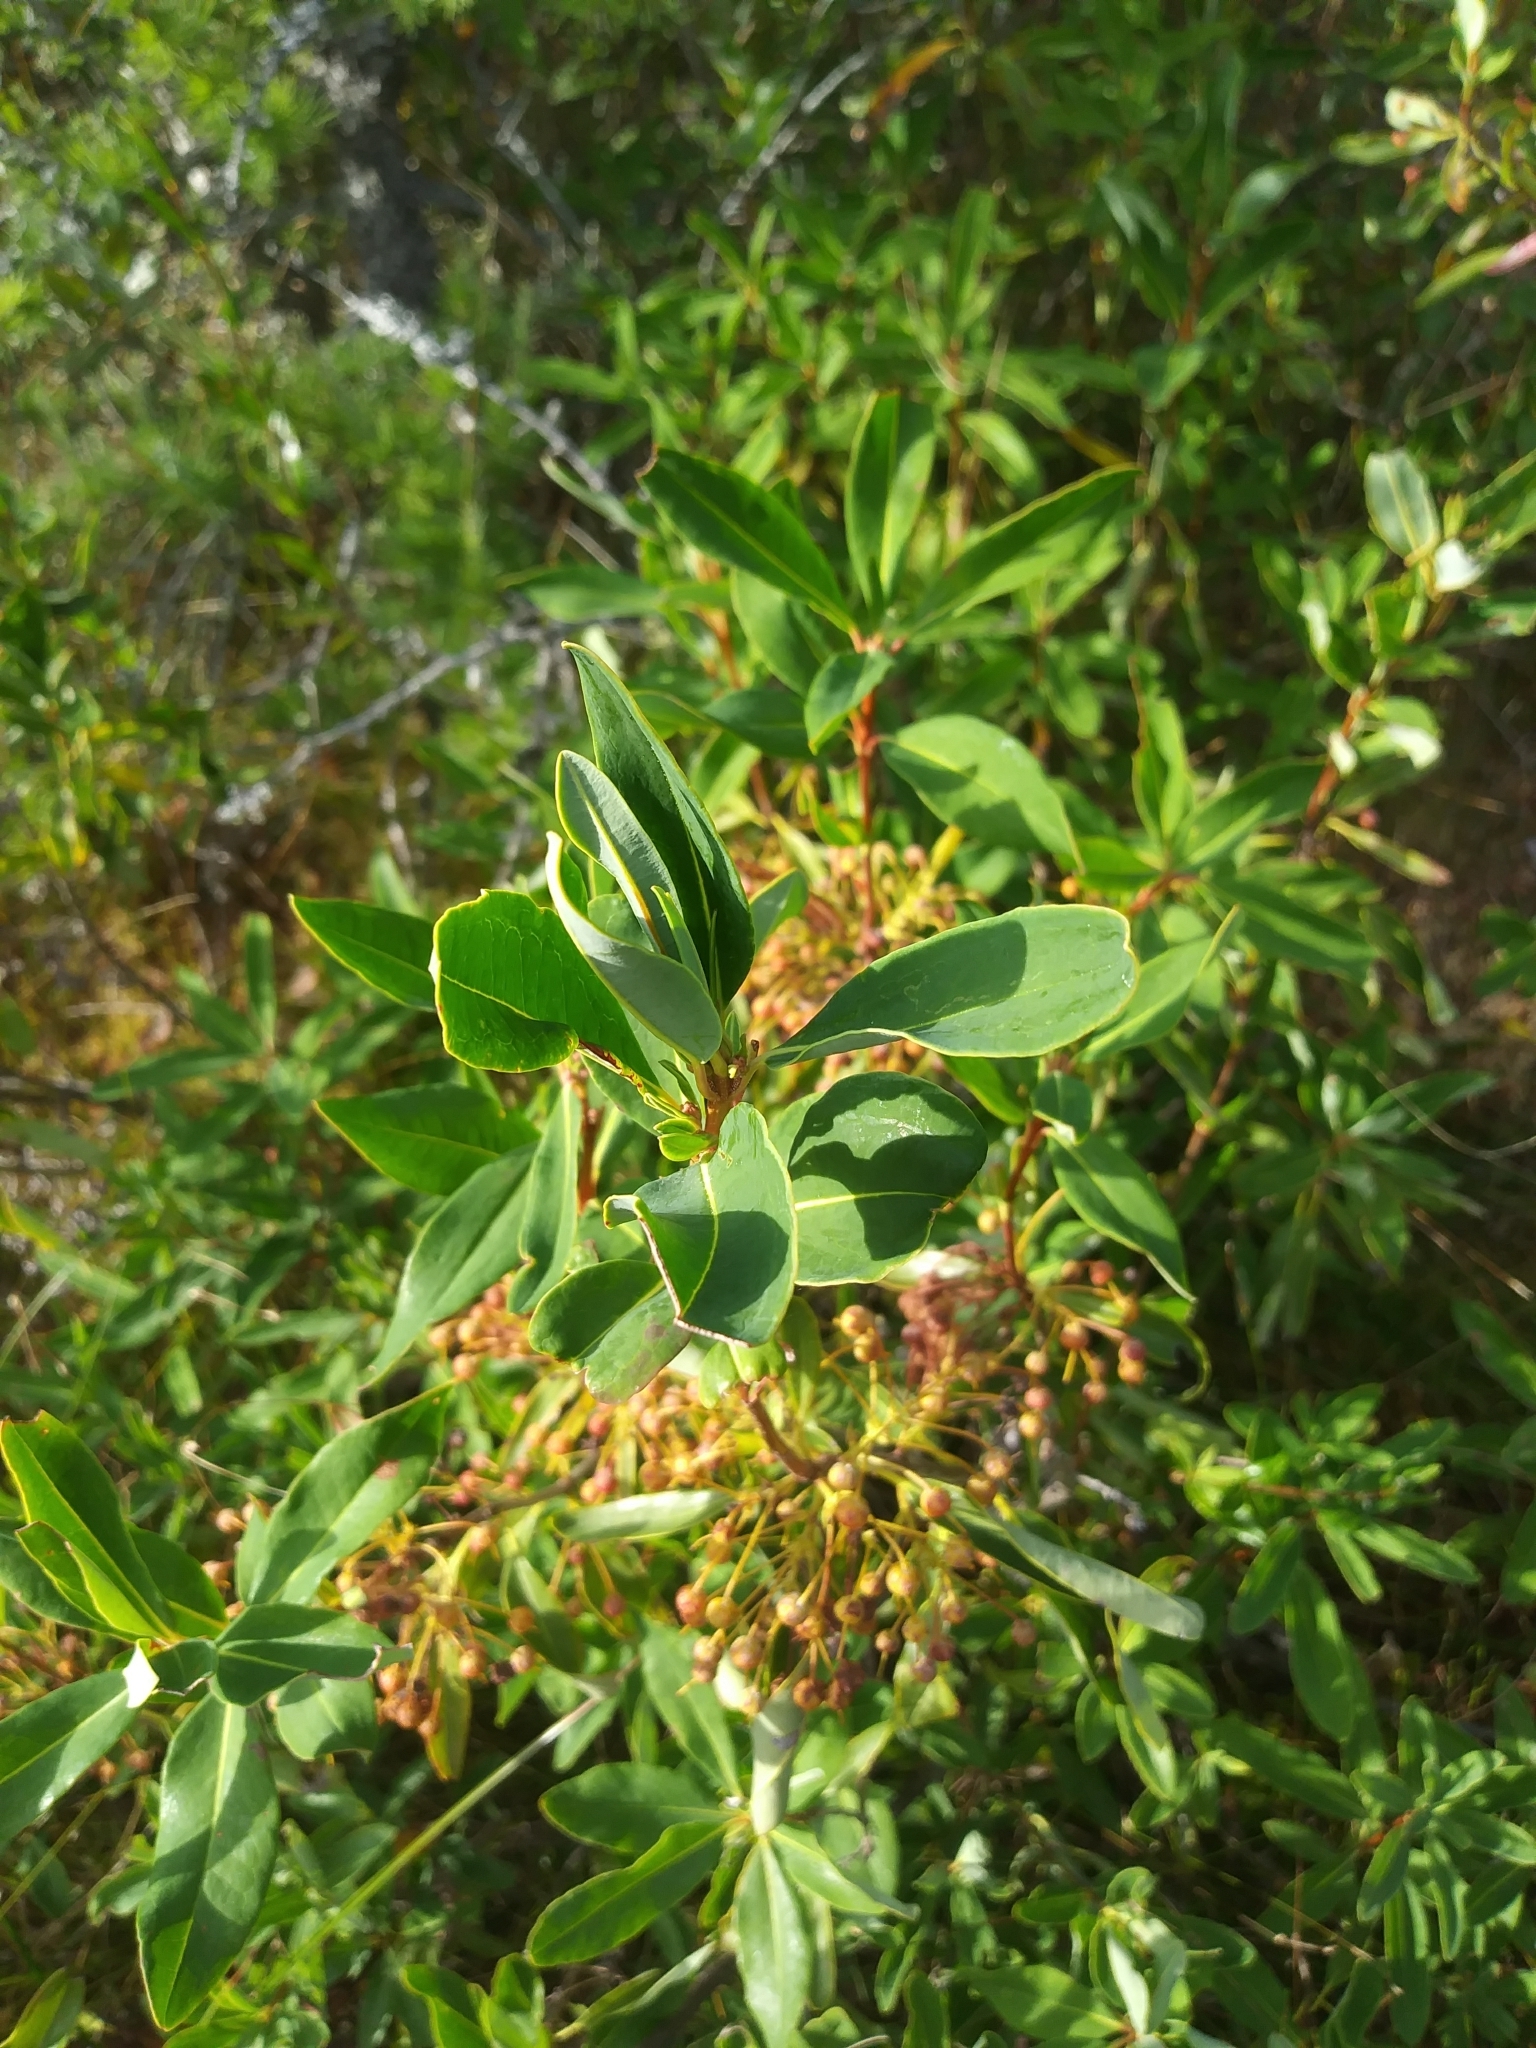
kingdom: Plantae
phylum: Tracheophyta
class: Magnoliopsida
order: Ericales
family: Ericaceae
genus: Kalmia
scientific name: Kalmia angustifolia
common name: Sheep-laurel
